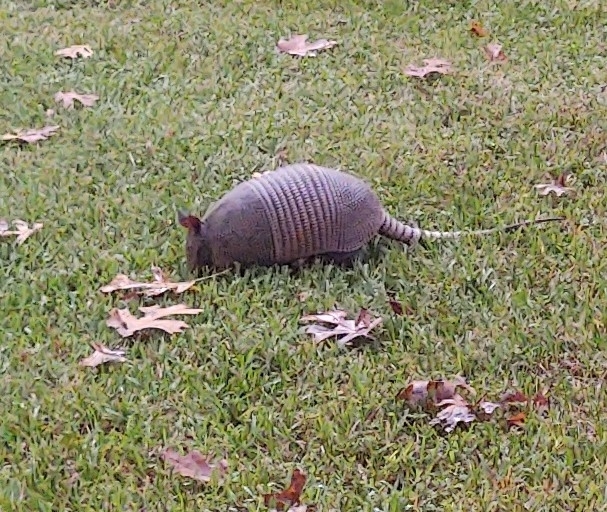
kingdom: Animalia
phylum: Chordata
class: Mammalia
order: Cingulata
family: Dasypodidae
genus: Dasypus
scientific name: Dasypus novemcinctus
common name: Nine-banded armadillo
